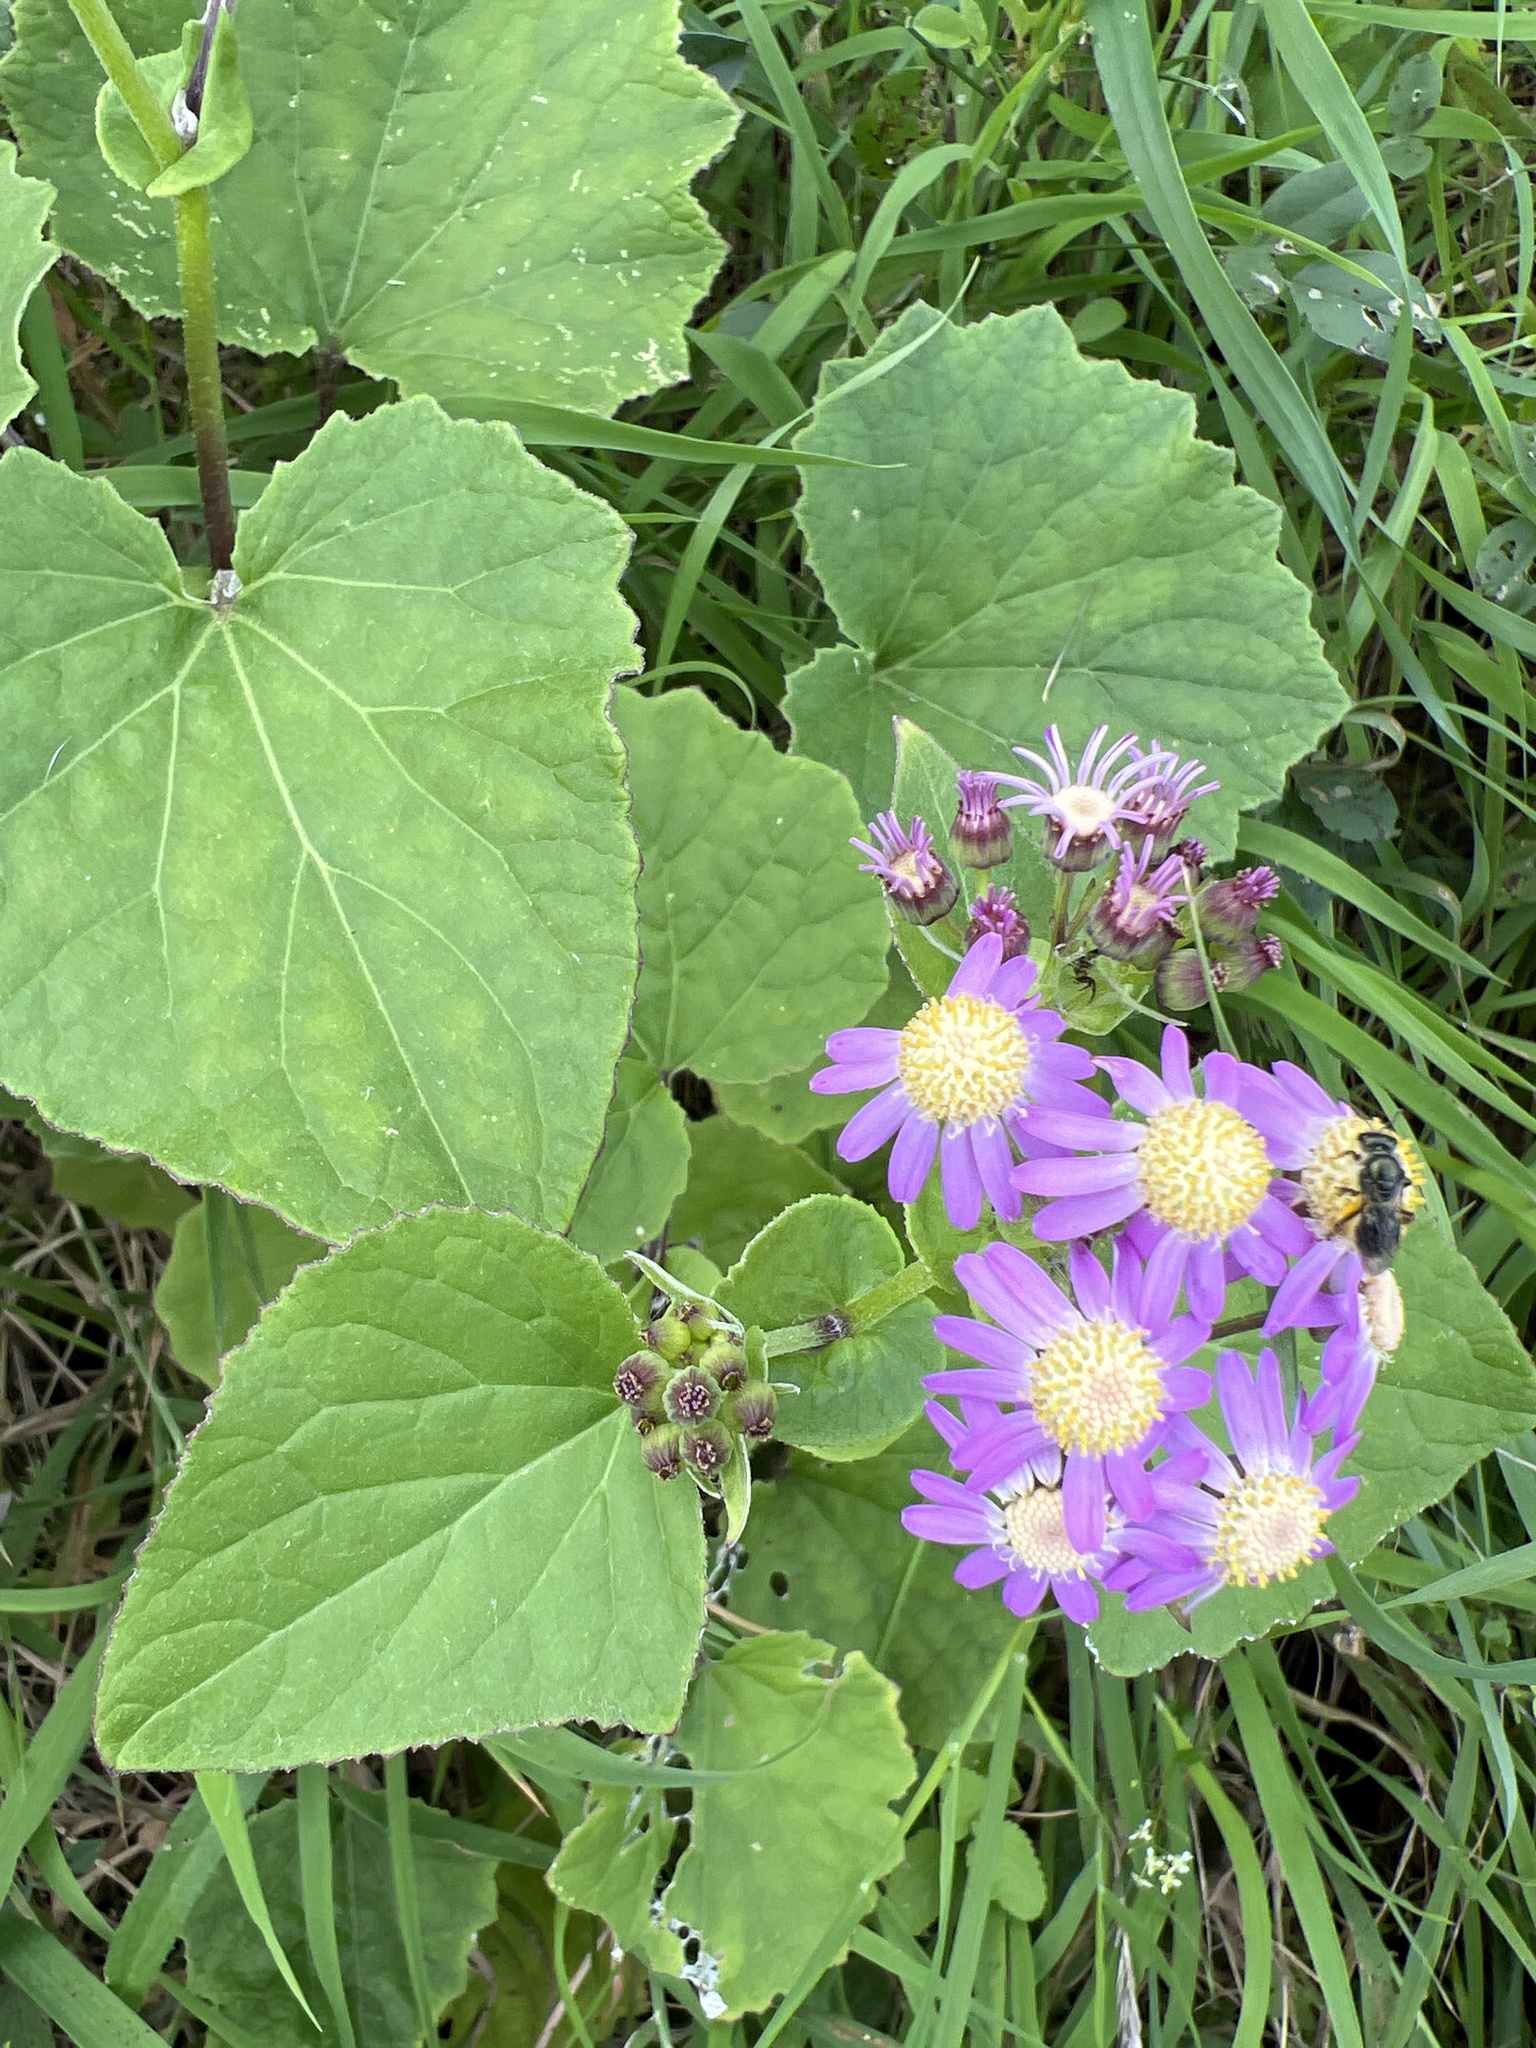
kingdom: Plantae
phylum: Tracheophyta
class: Magnoliopsida
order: Asterales
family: Asteraceae
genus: Pericallis
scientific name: Pericallis steetzii
